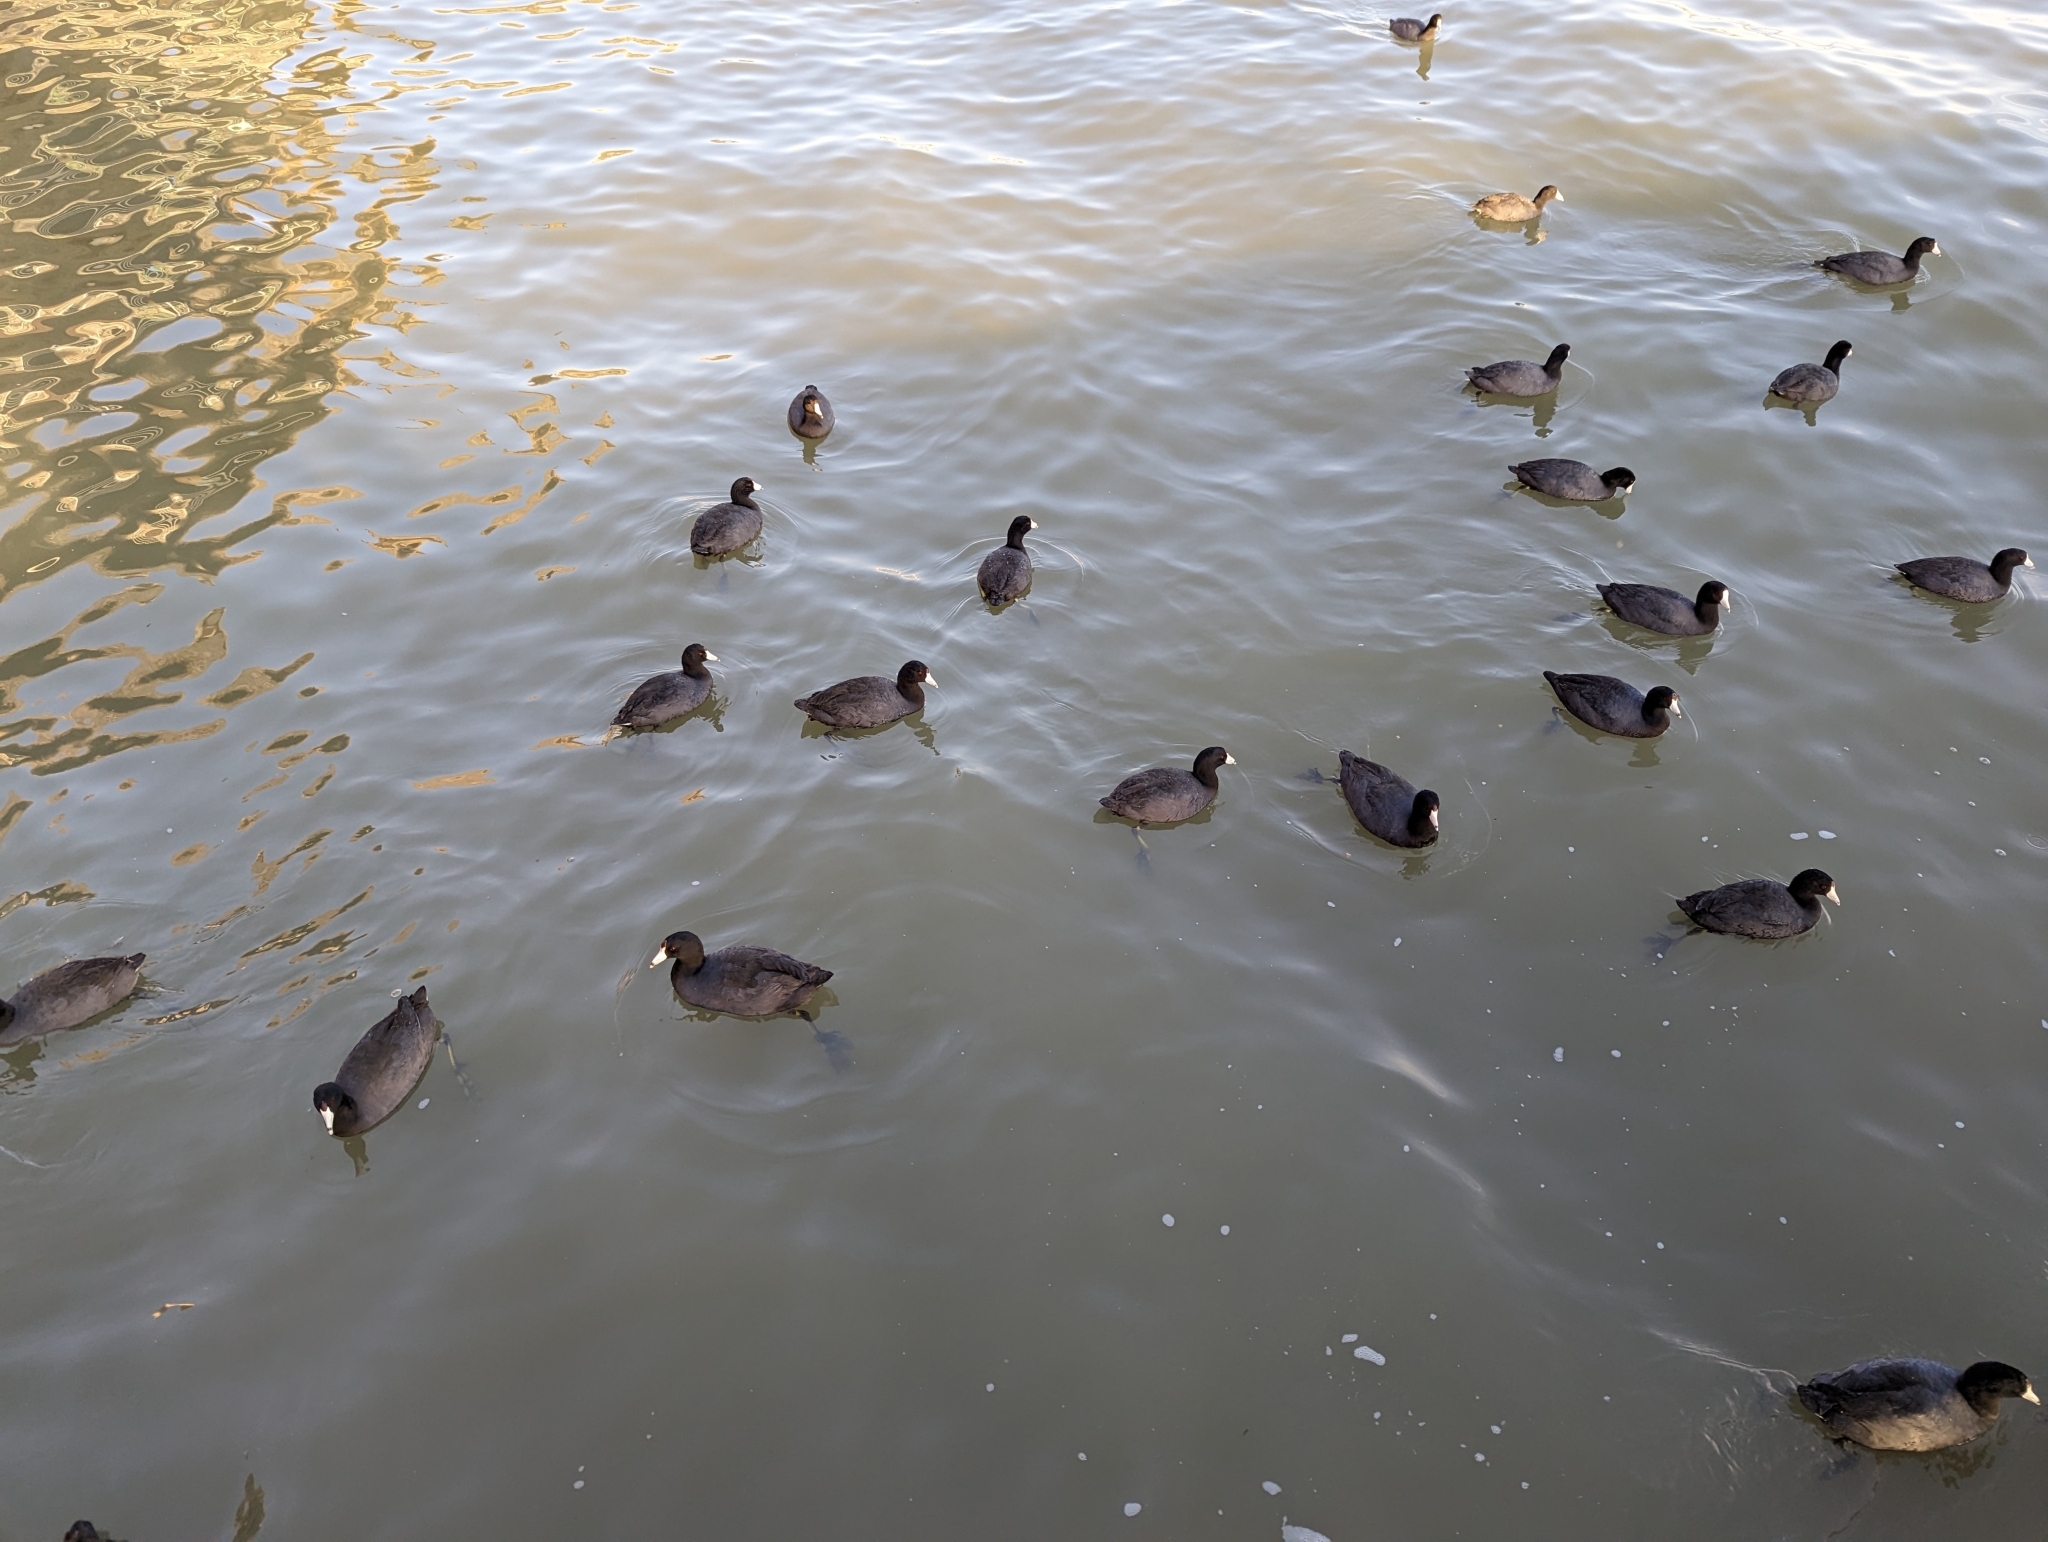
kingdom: Animalia
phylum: Chordata
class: Aves
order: Gruiformes
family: Rallidae
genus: Fulica
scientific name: Fulica americana
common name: American coot
